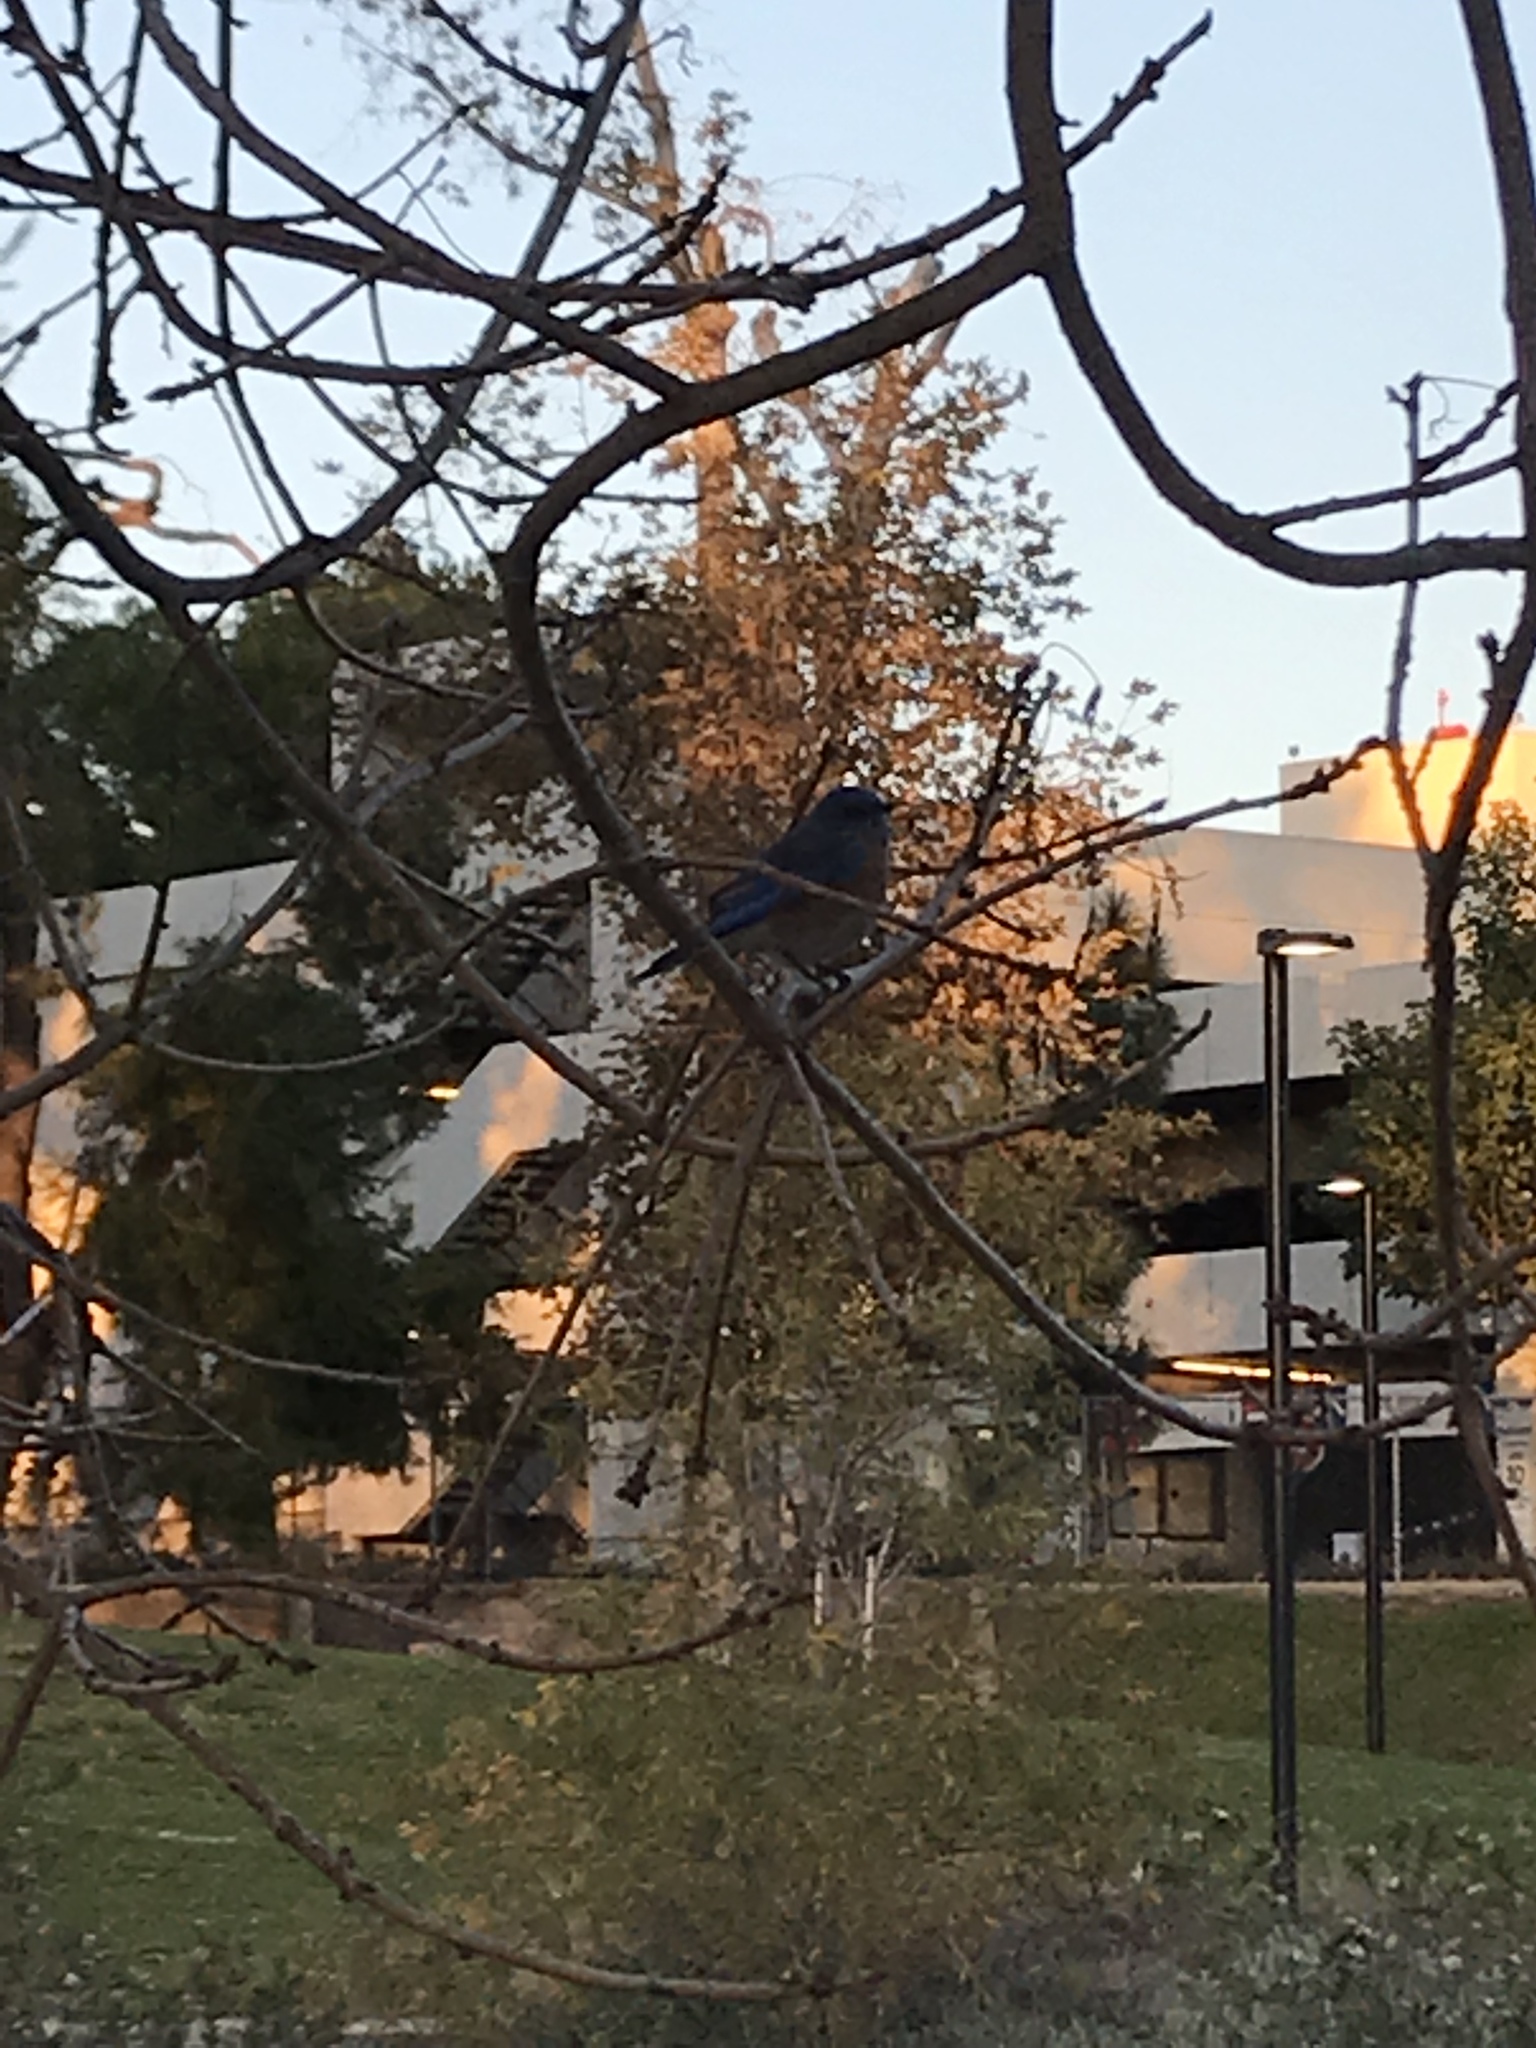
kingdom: Animalia
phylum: Chordata
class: Aves
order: Passeriformes
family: Turdidae
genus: Sialia
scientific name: Sialia mexicana
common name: Western bluebird
